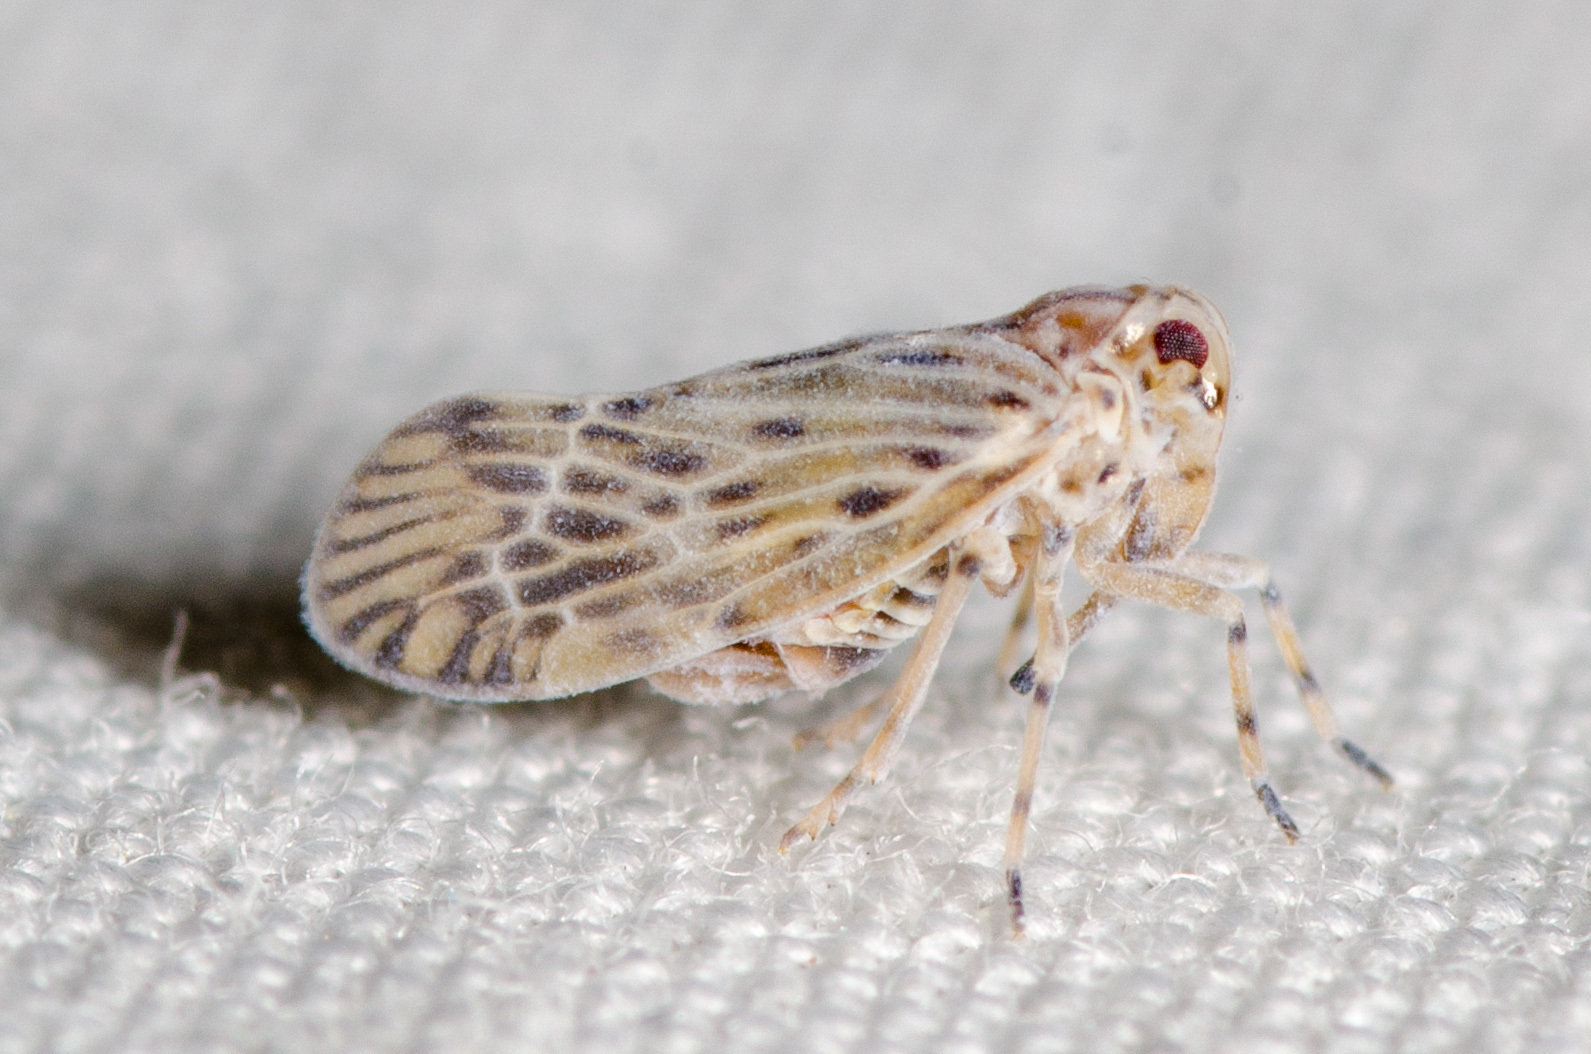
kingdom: Animalia
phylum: Arthropoda
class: Insecta
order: Hemiptera
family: Derbidae
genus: Cedusa
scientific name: Cedusa maculata
